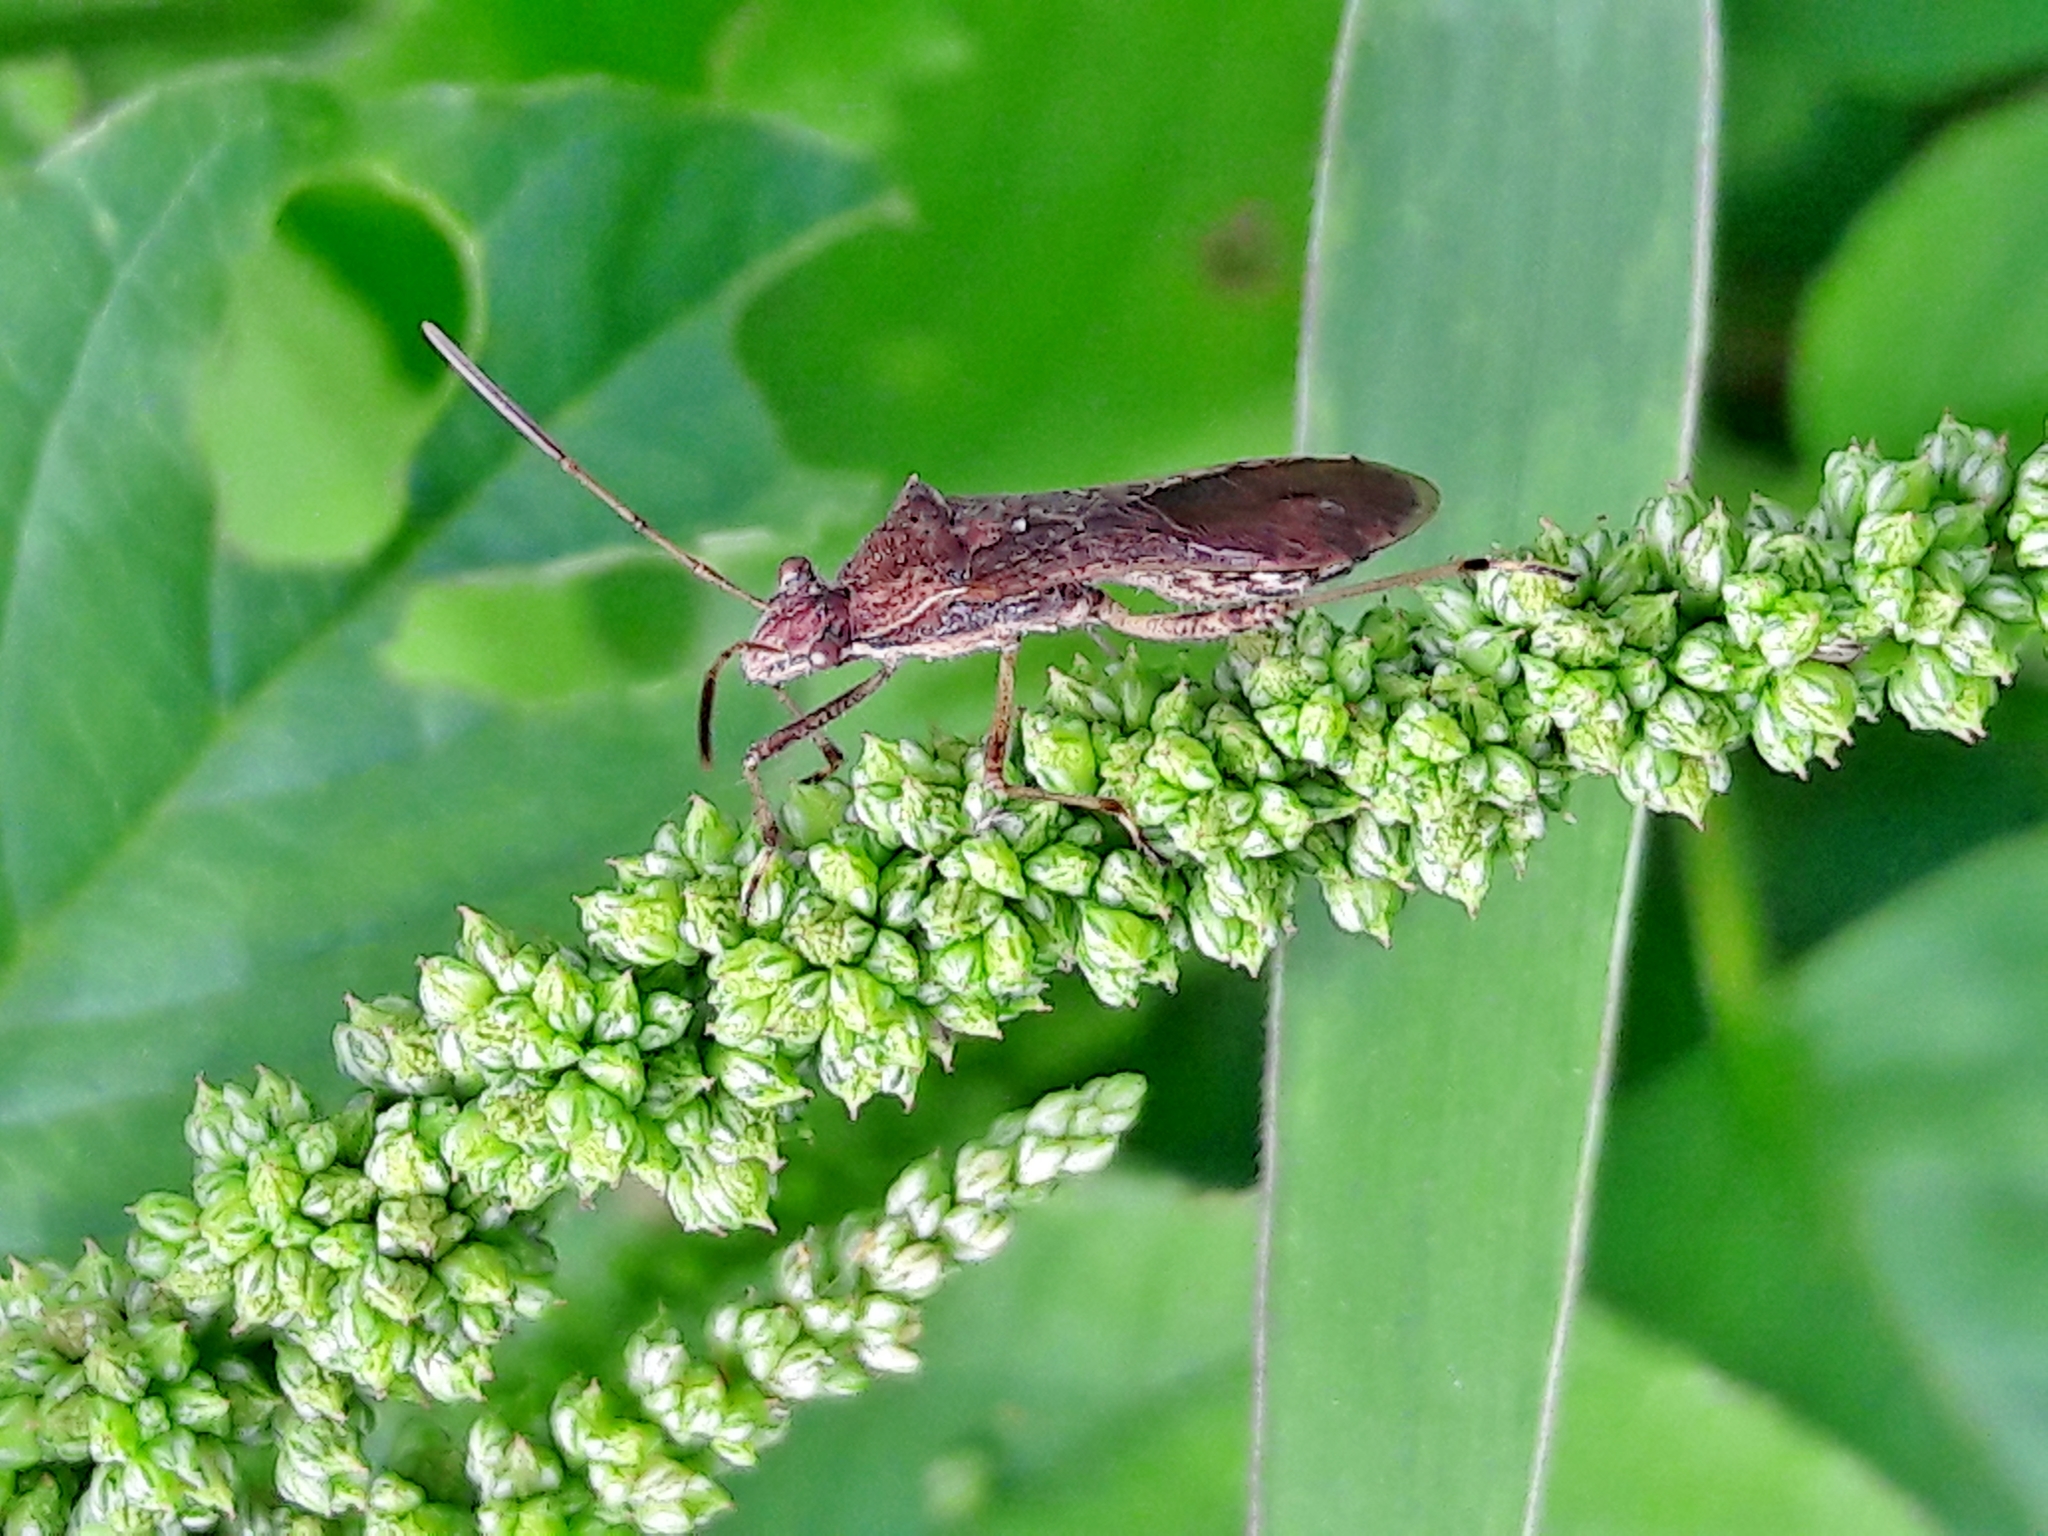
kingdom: Animalia
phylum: Arthropoda
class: Insecta
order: Hemiptera
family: Alydidae
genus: Neomegalotomus
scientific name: Neomegalotomus parvus
